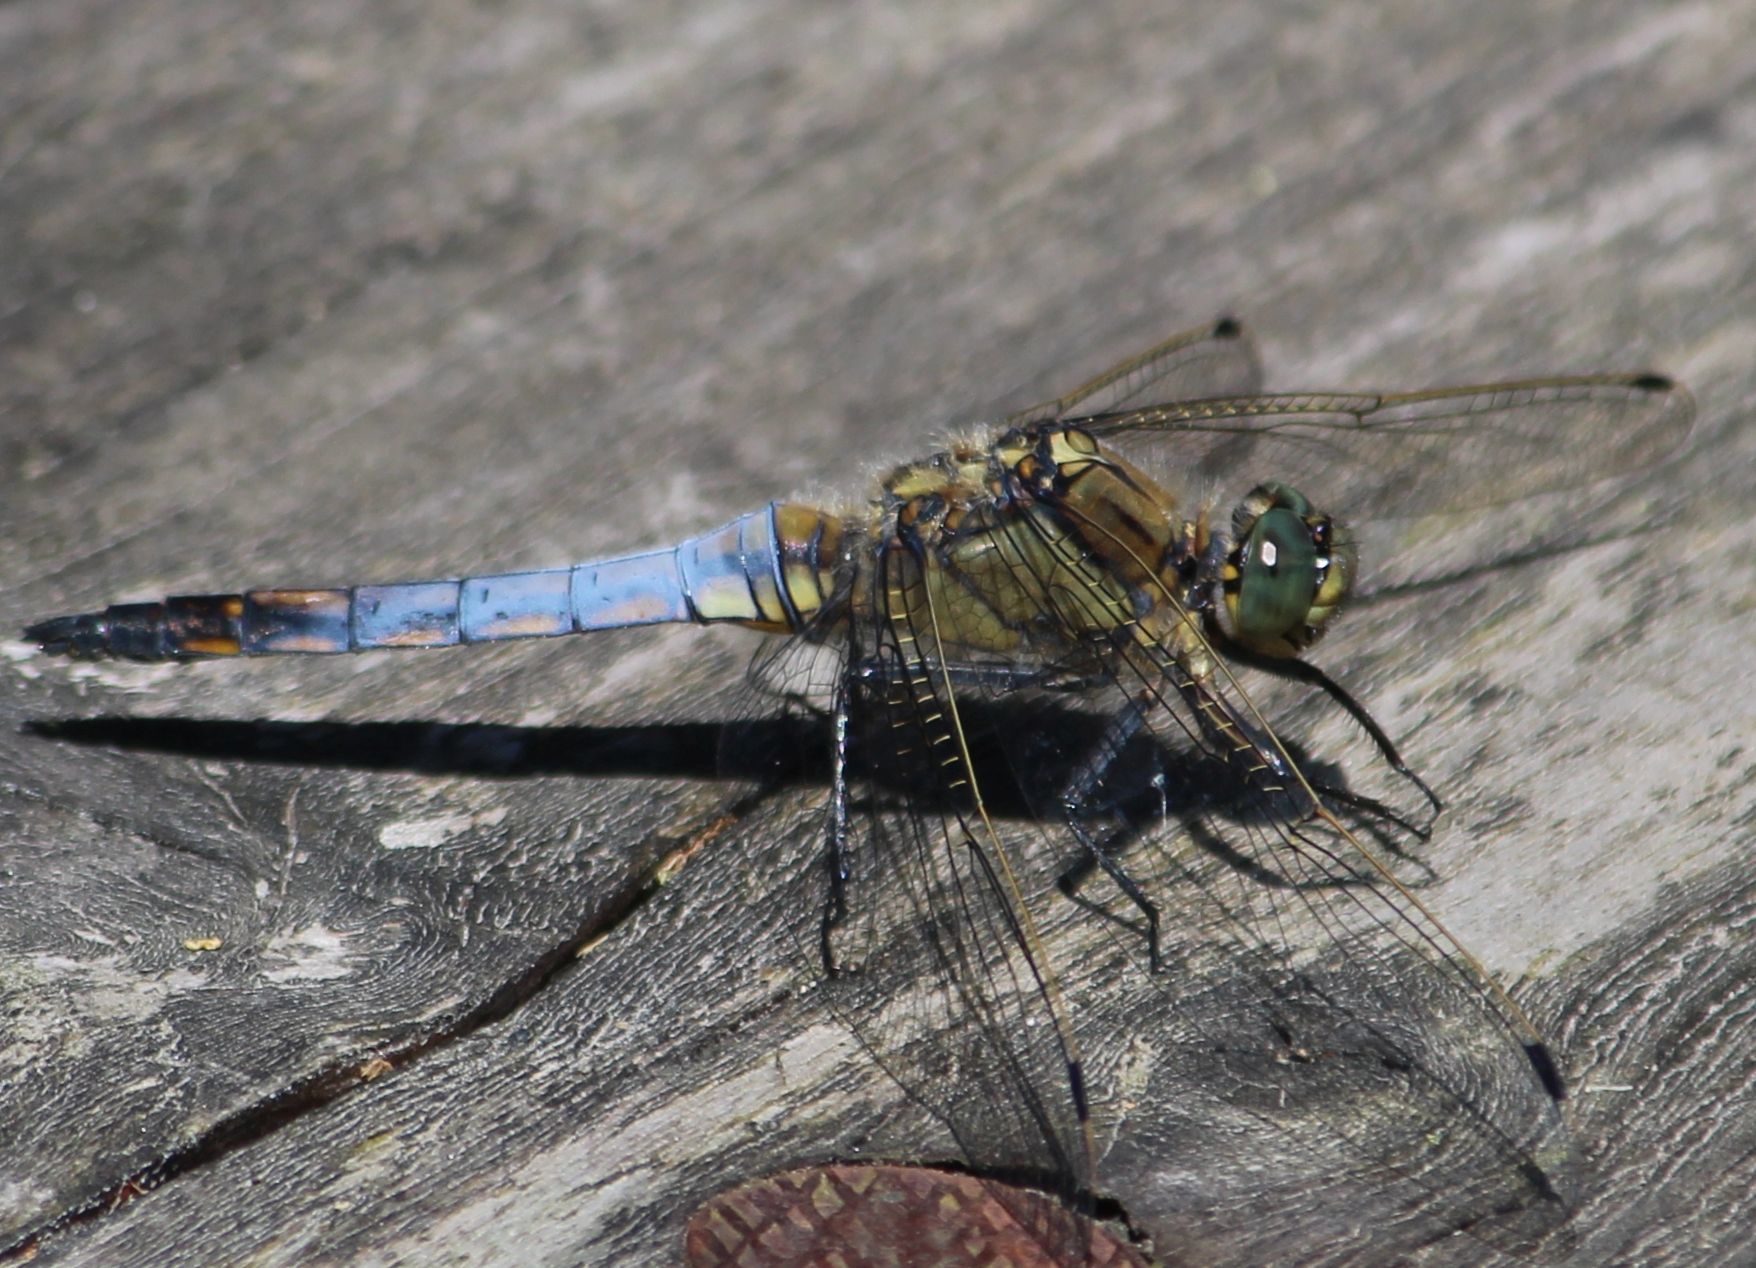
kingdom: Animalia
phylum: Arthropoda
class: Insecta
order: Odonata
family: Libellulidae
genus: Orthetrum
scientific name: Orthetrum cancellatum
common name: Black-tailed skimmer
